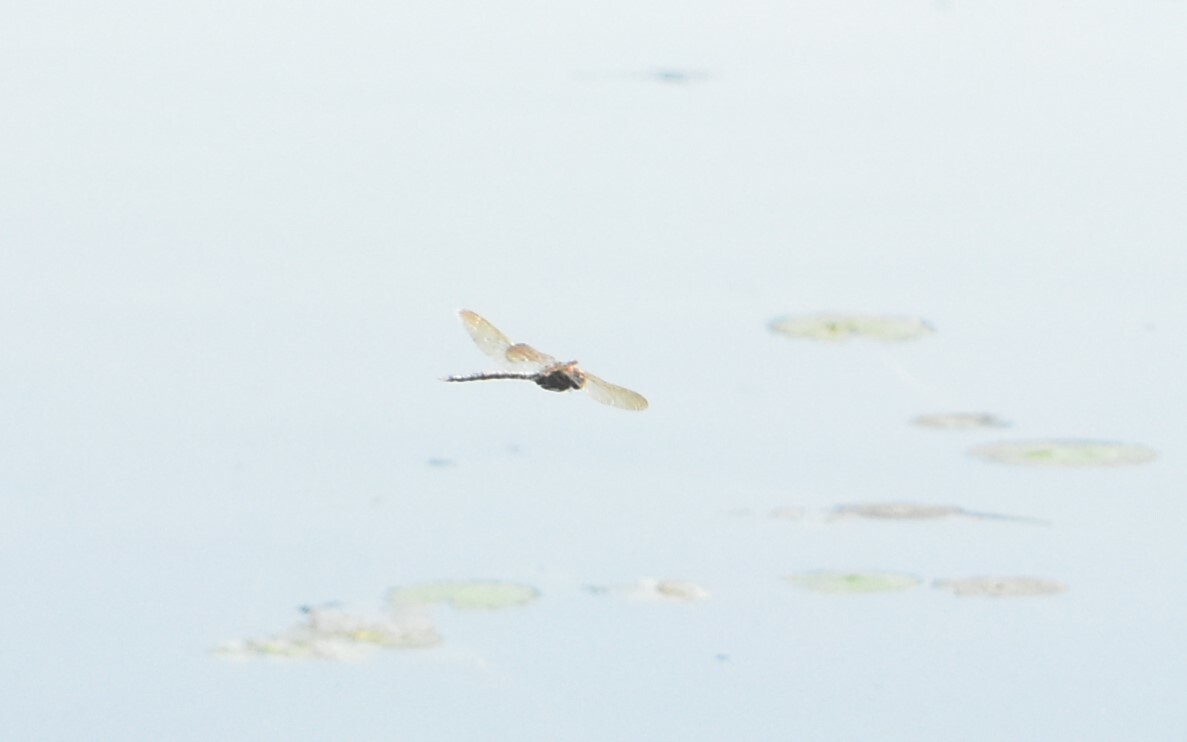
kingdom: Animalia
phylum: Arthropoda
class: Insecta
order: Odonata
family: Aeshnidae
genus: Aeshna
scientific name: Aeshna grandis
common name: Brown hawker
